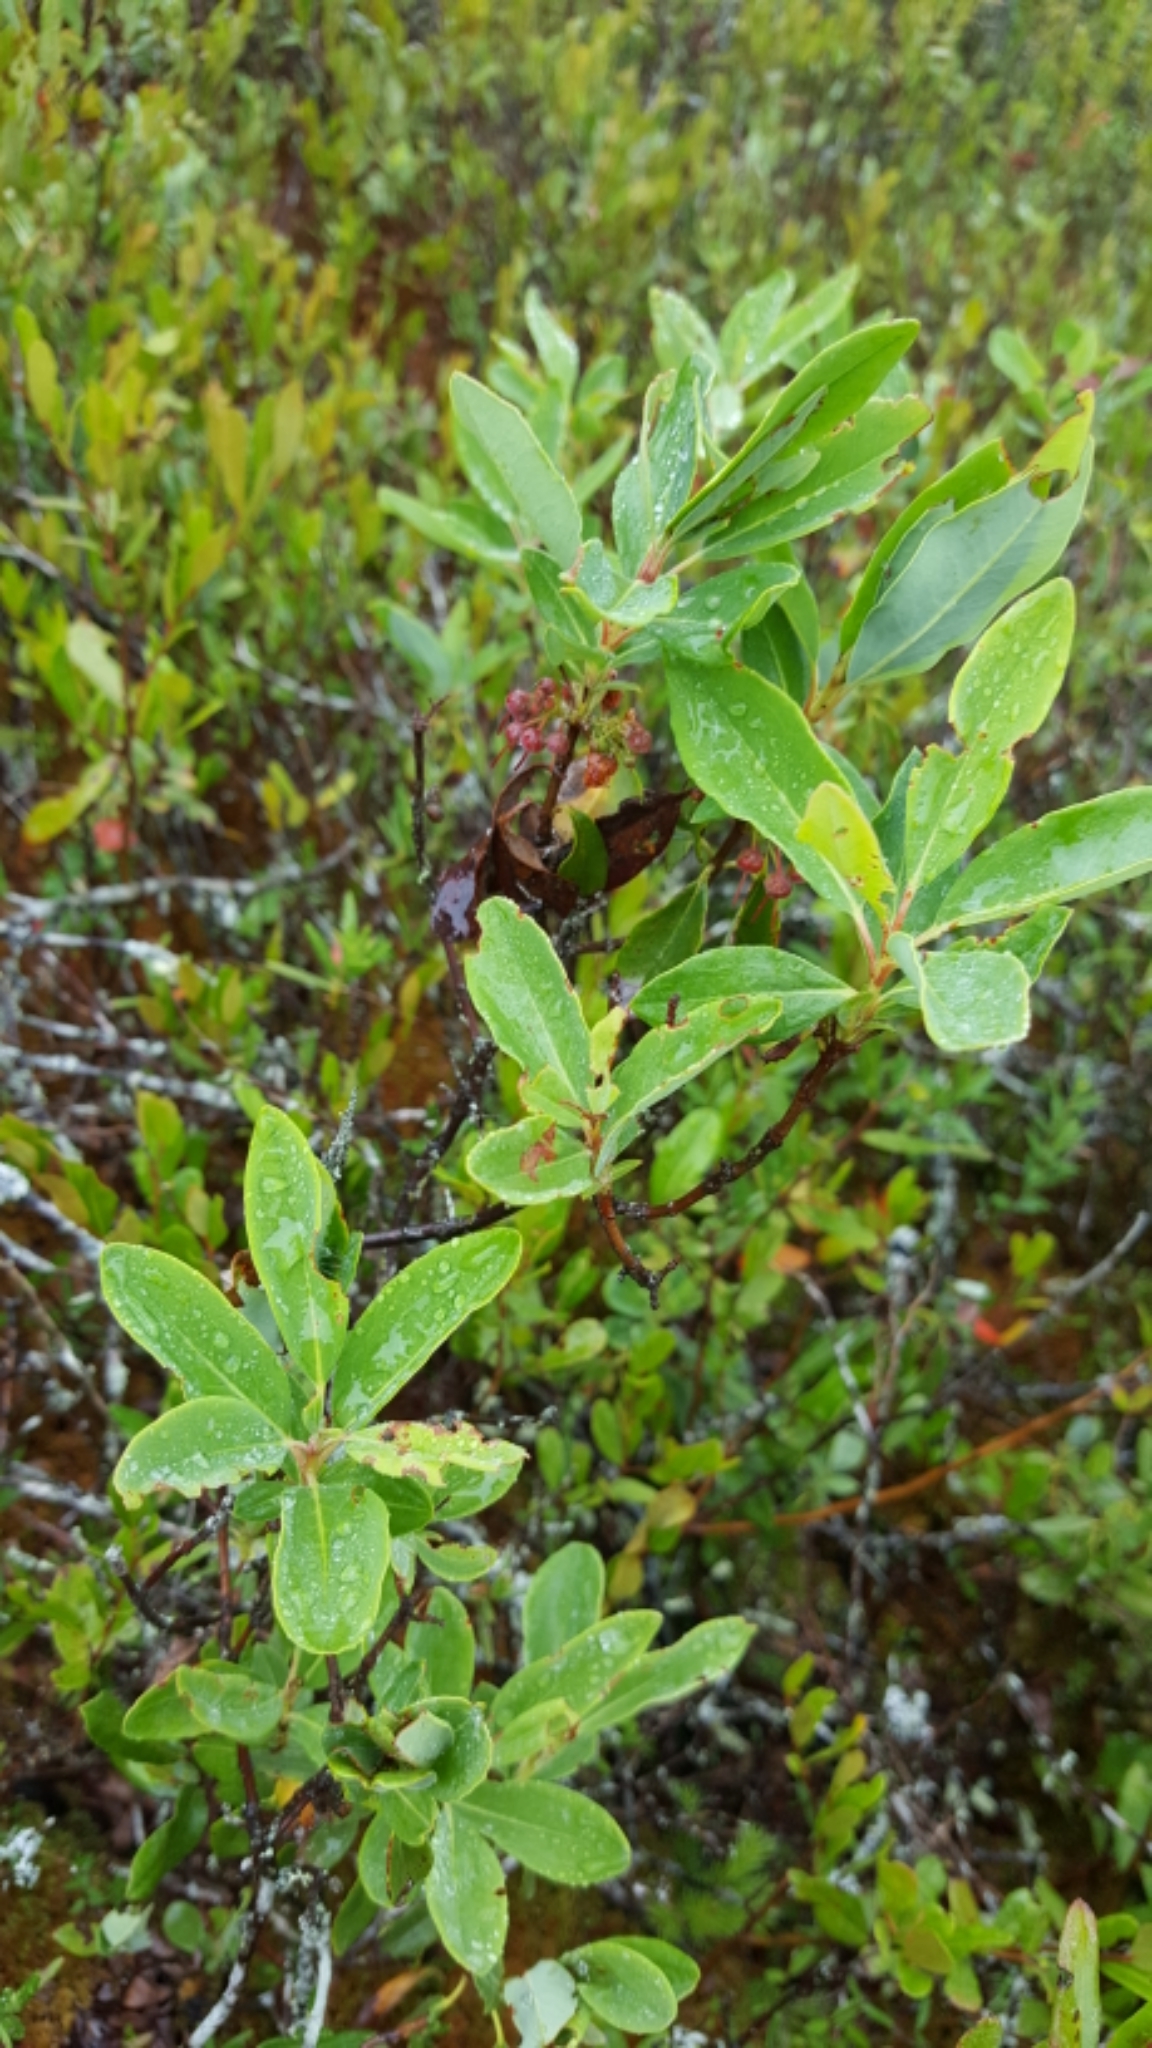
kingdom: Plantae
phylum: Tracheophyta
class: Magnoliopsida
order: Ericales
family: Ericaceae
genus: Kalmia
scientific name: Kalmia angustifolia
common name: Sheep-laurel
